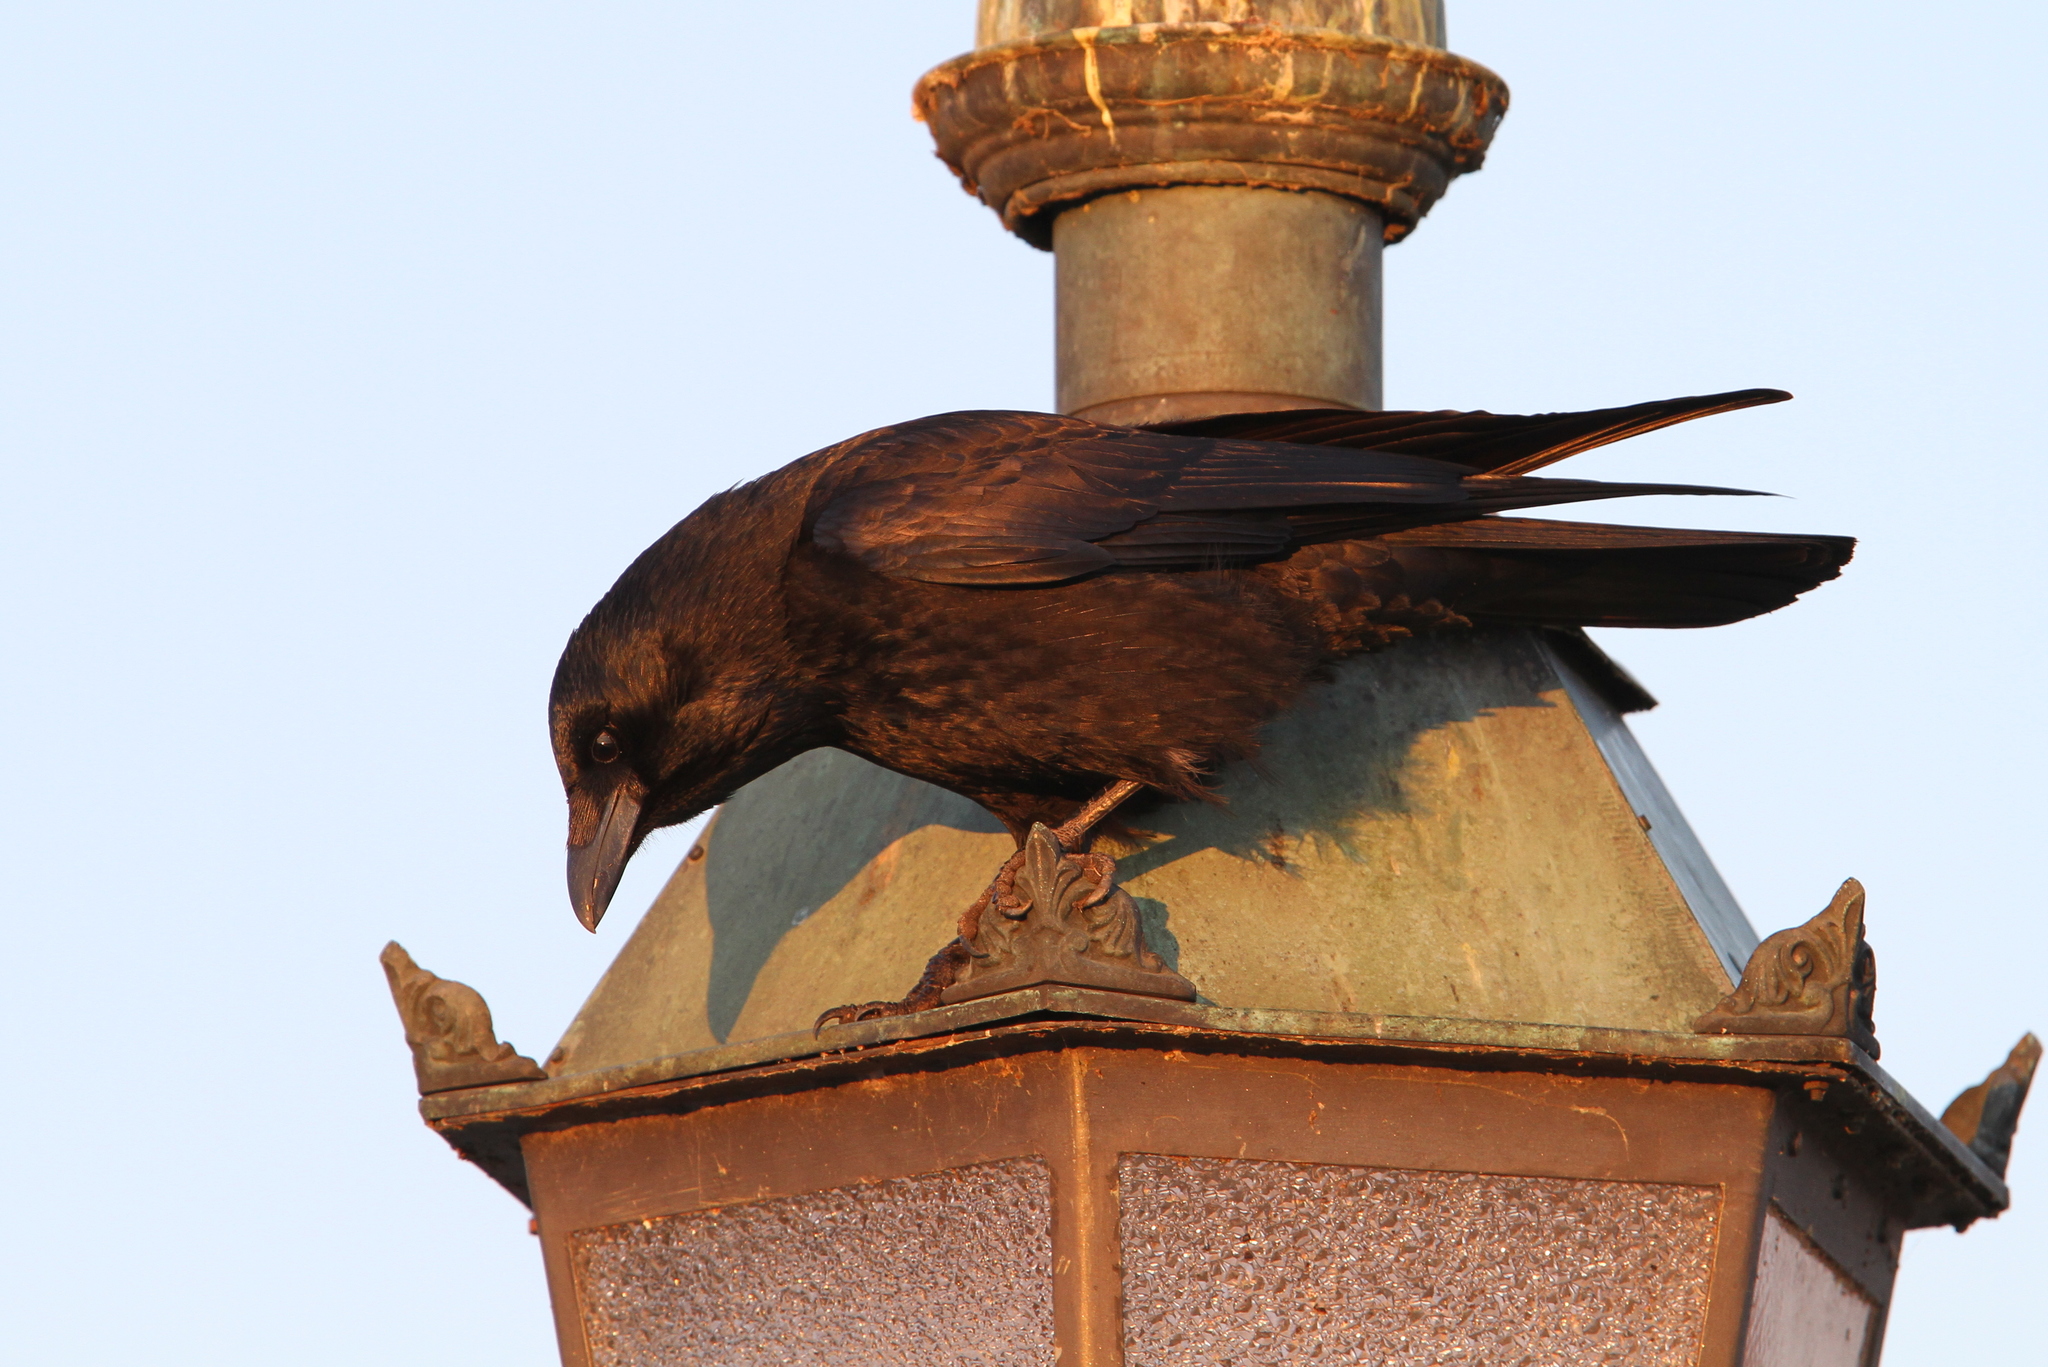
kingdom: Animalia
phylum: Chordata
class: Aves
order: Passeriformes
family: Corvidae
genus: Corvus
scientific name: Corvus corone
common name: Carrion crow
